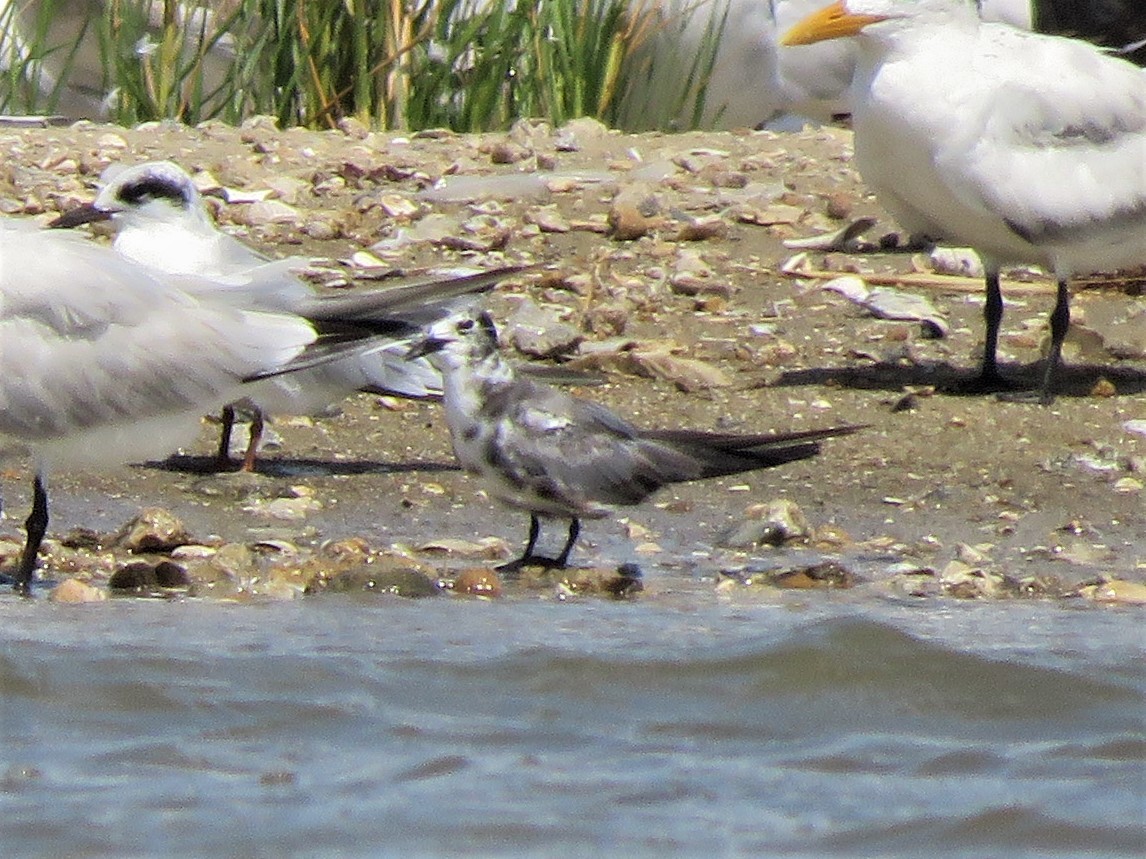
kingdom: Animalia
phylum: Chordata
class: Aves
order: Charadriiformes
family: Laridae
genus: Chlidonias
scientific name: Chlidonias niger
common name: Black tern
